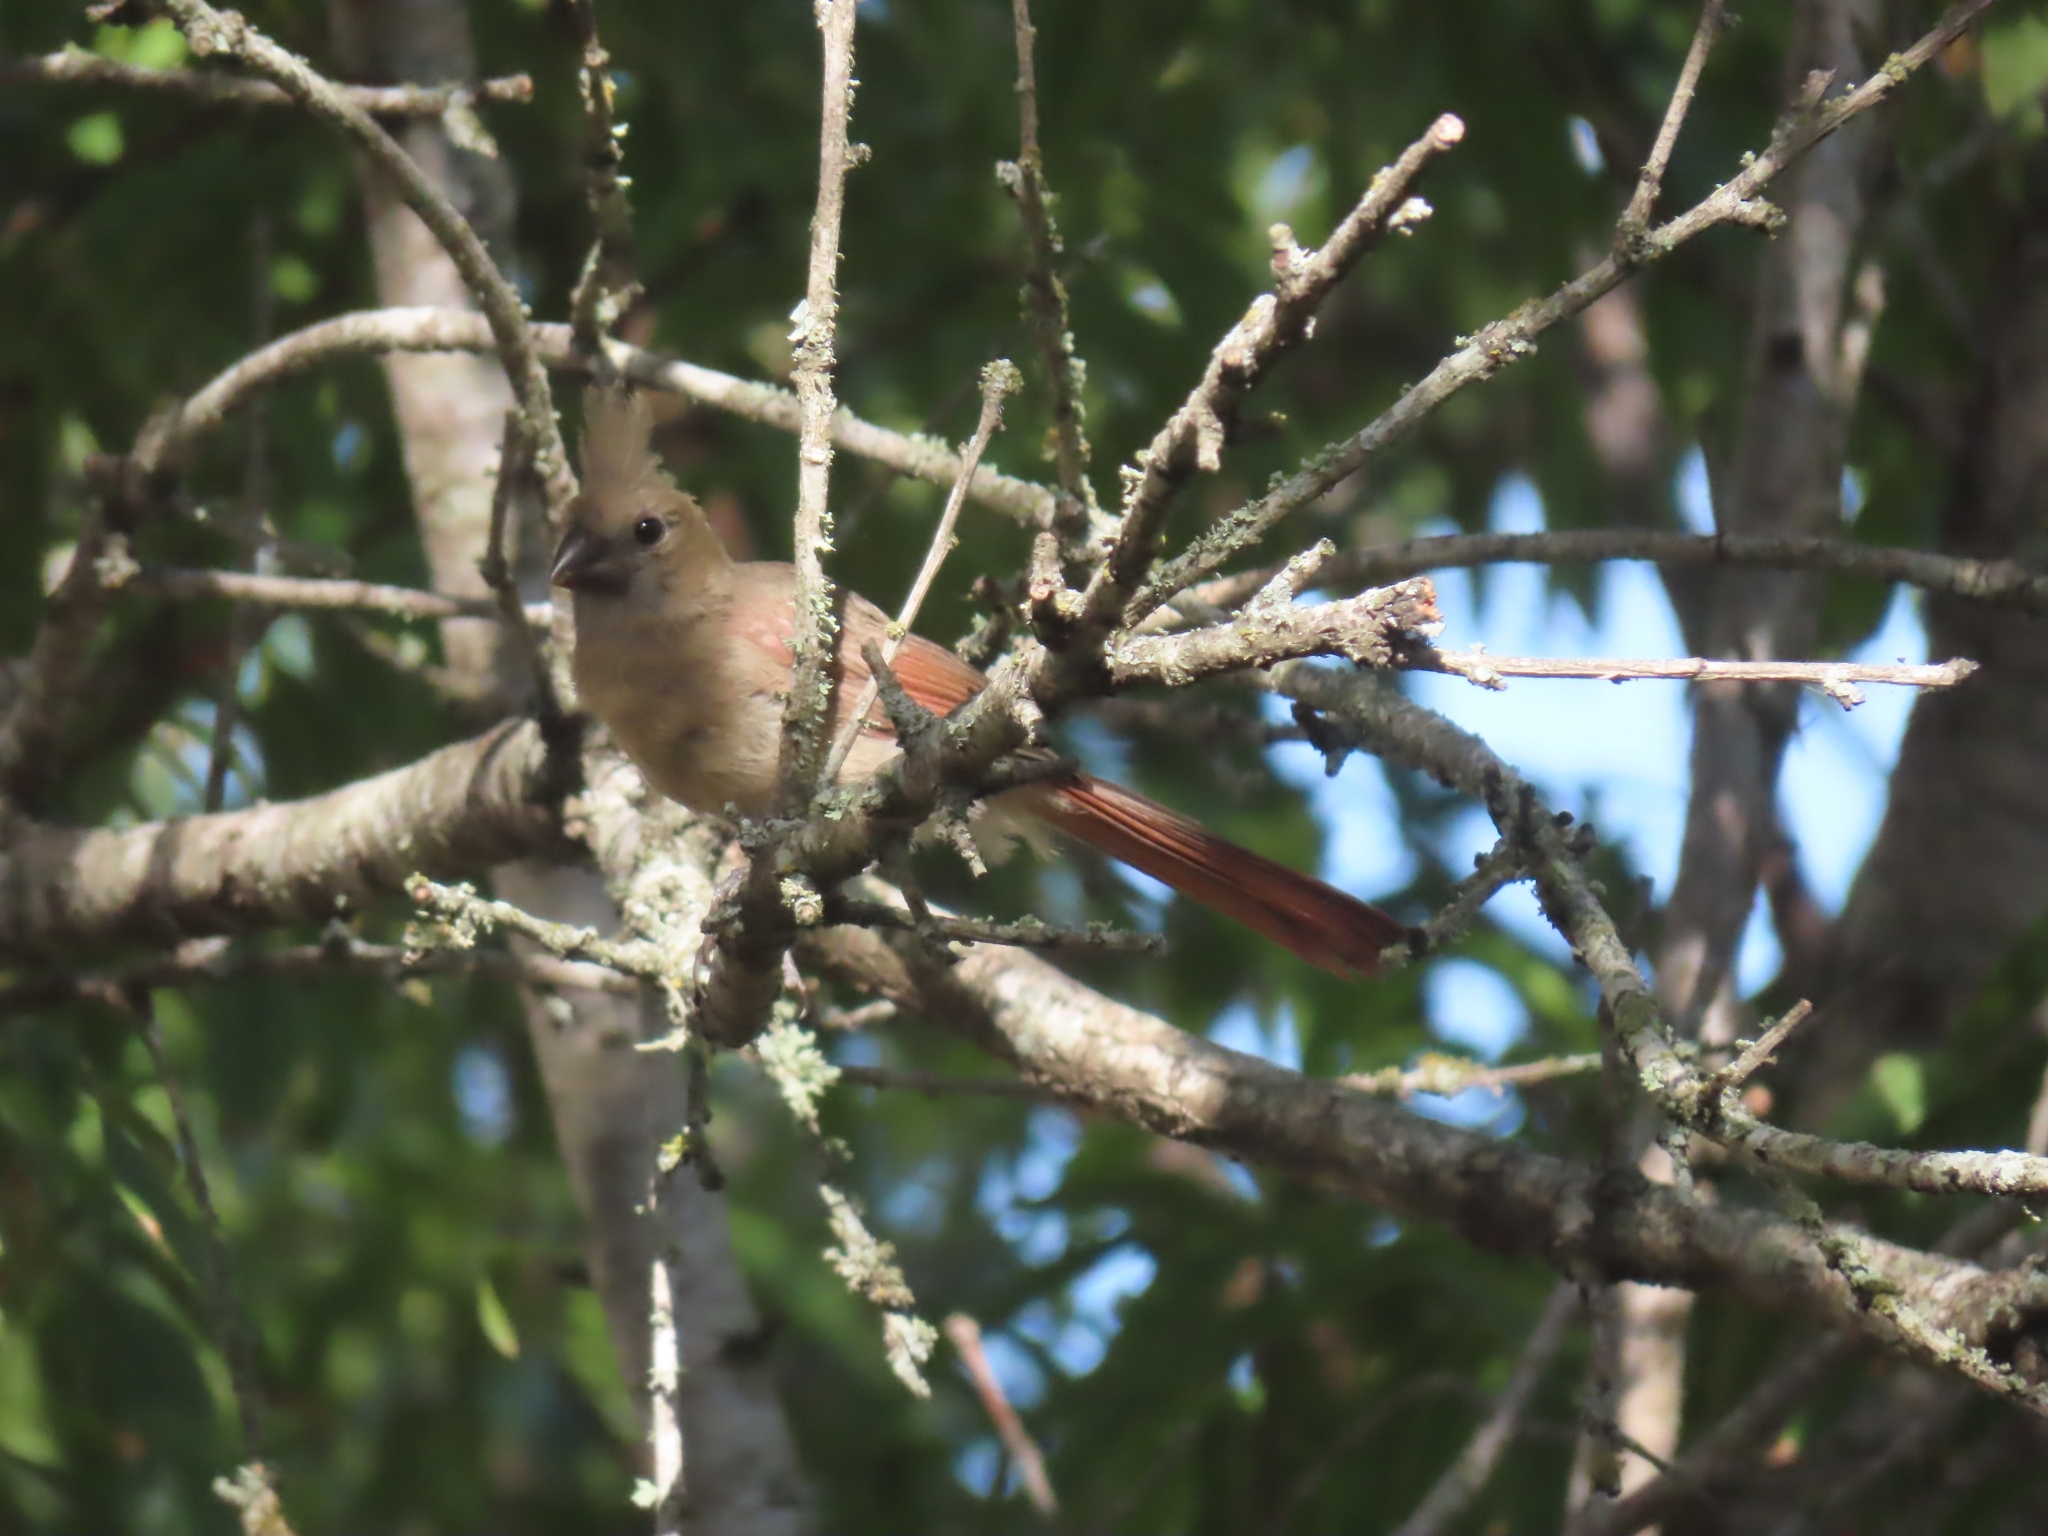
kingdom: Animalia
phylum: Chordata
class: Aves
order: Passeriformes
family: Cardinalidae
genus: Cardinalis
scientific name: Cardinalis cardinalis
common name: Northern cardinal
